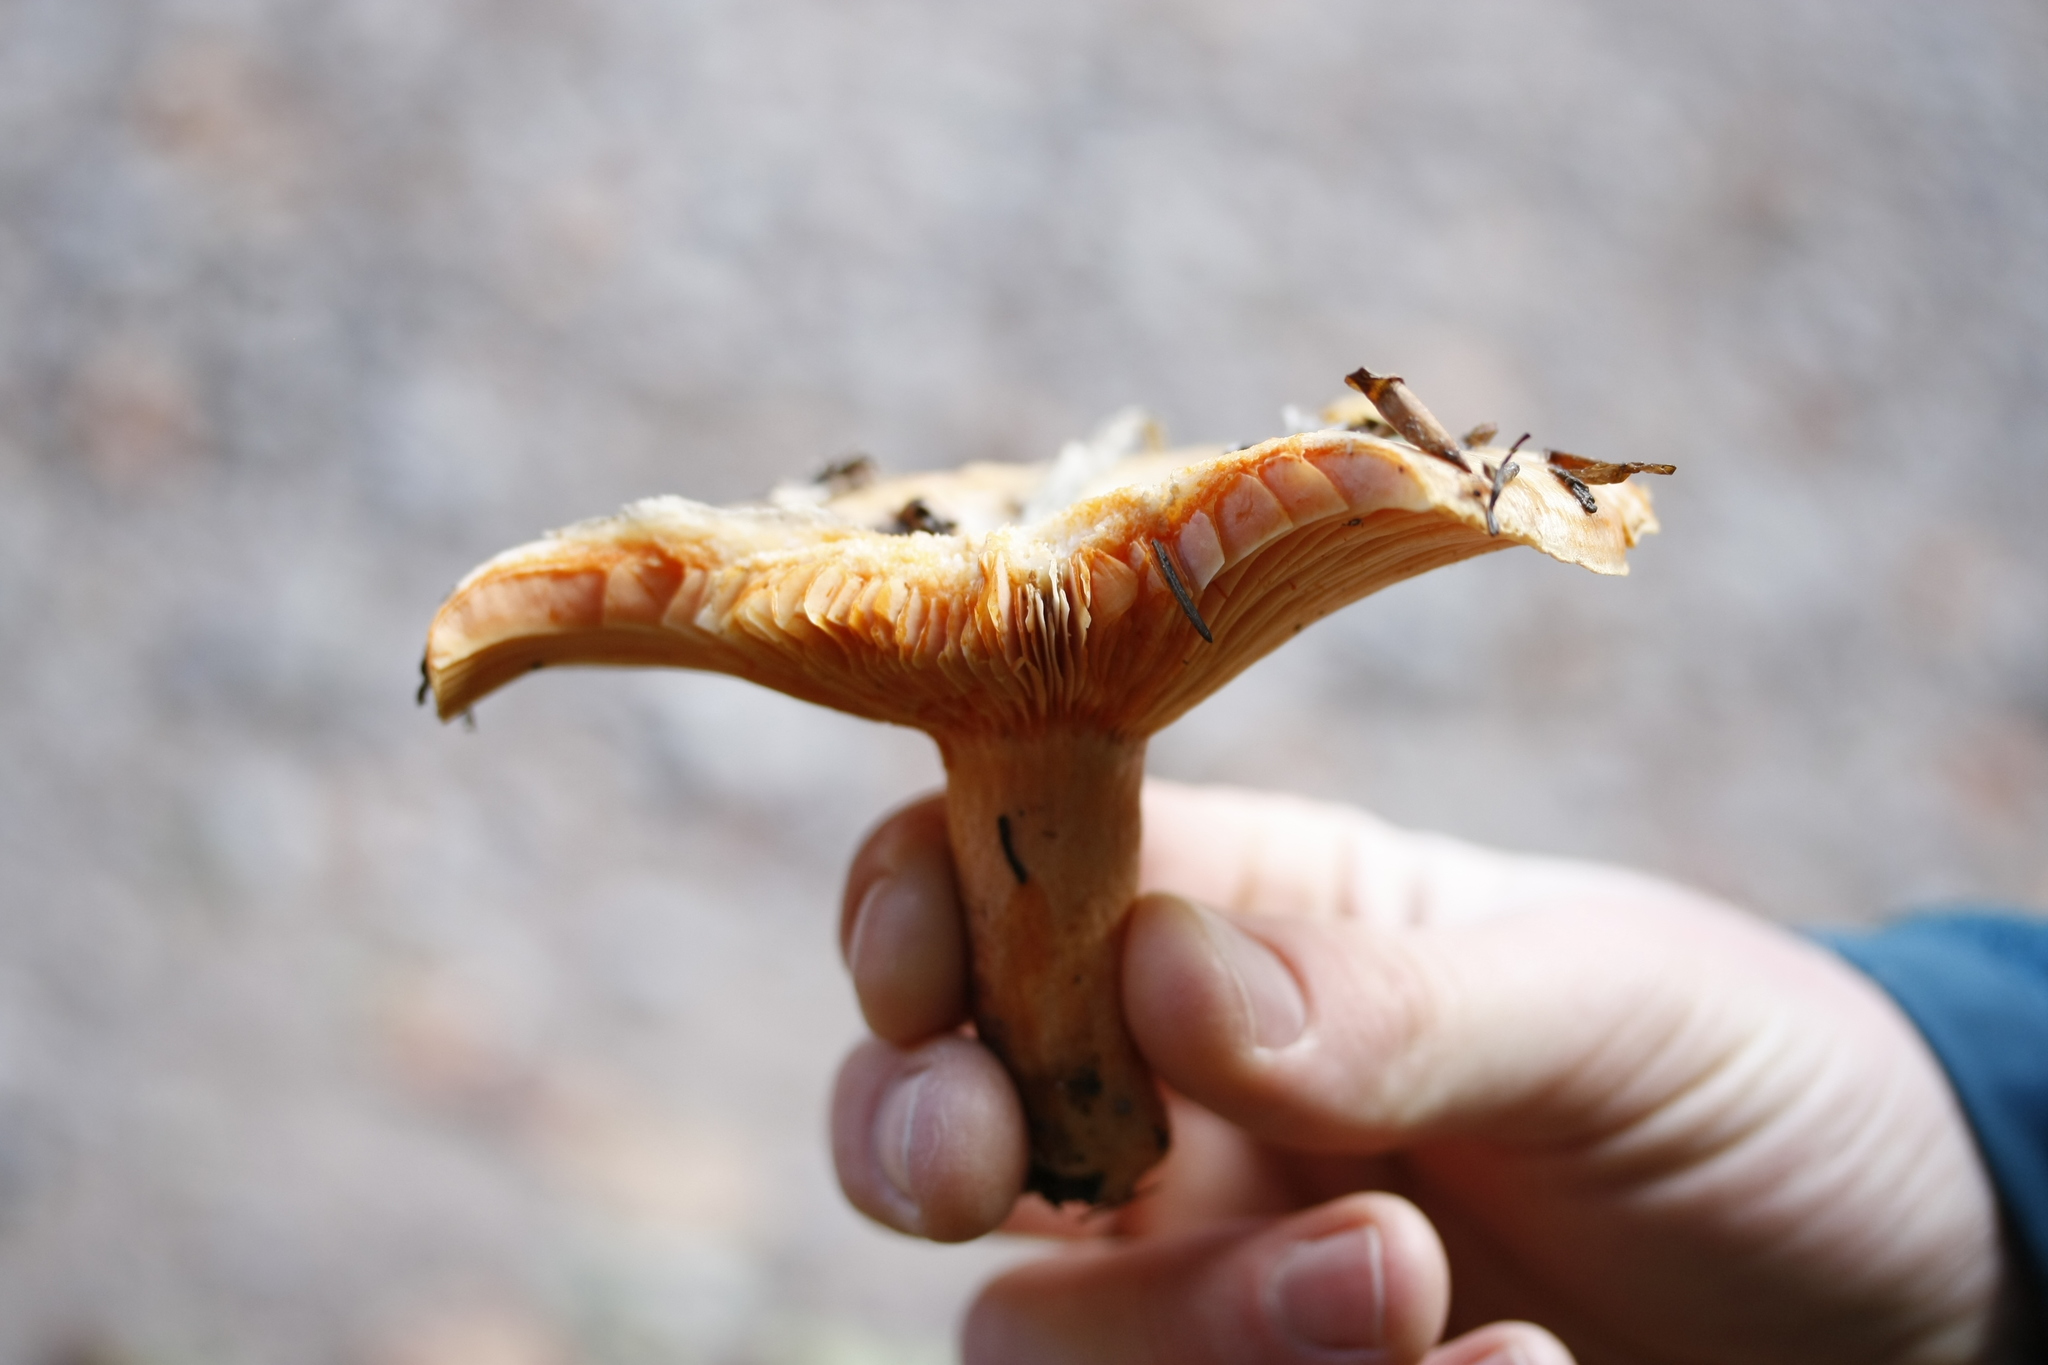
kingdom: Fungi
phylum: Basidiomycota
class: Agaricomycetes
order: Russulales
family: Russulaceae
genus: Lactarius
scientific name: Lactarius deliciosus
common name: Saffron milk-cap
